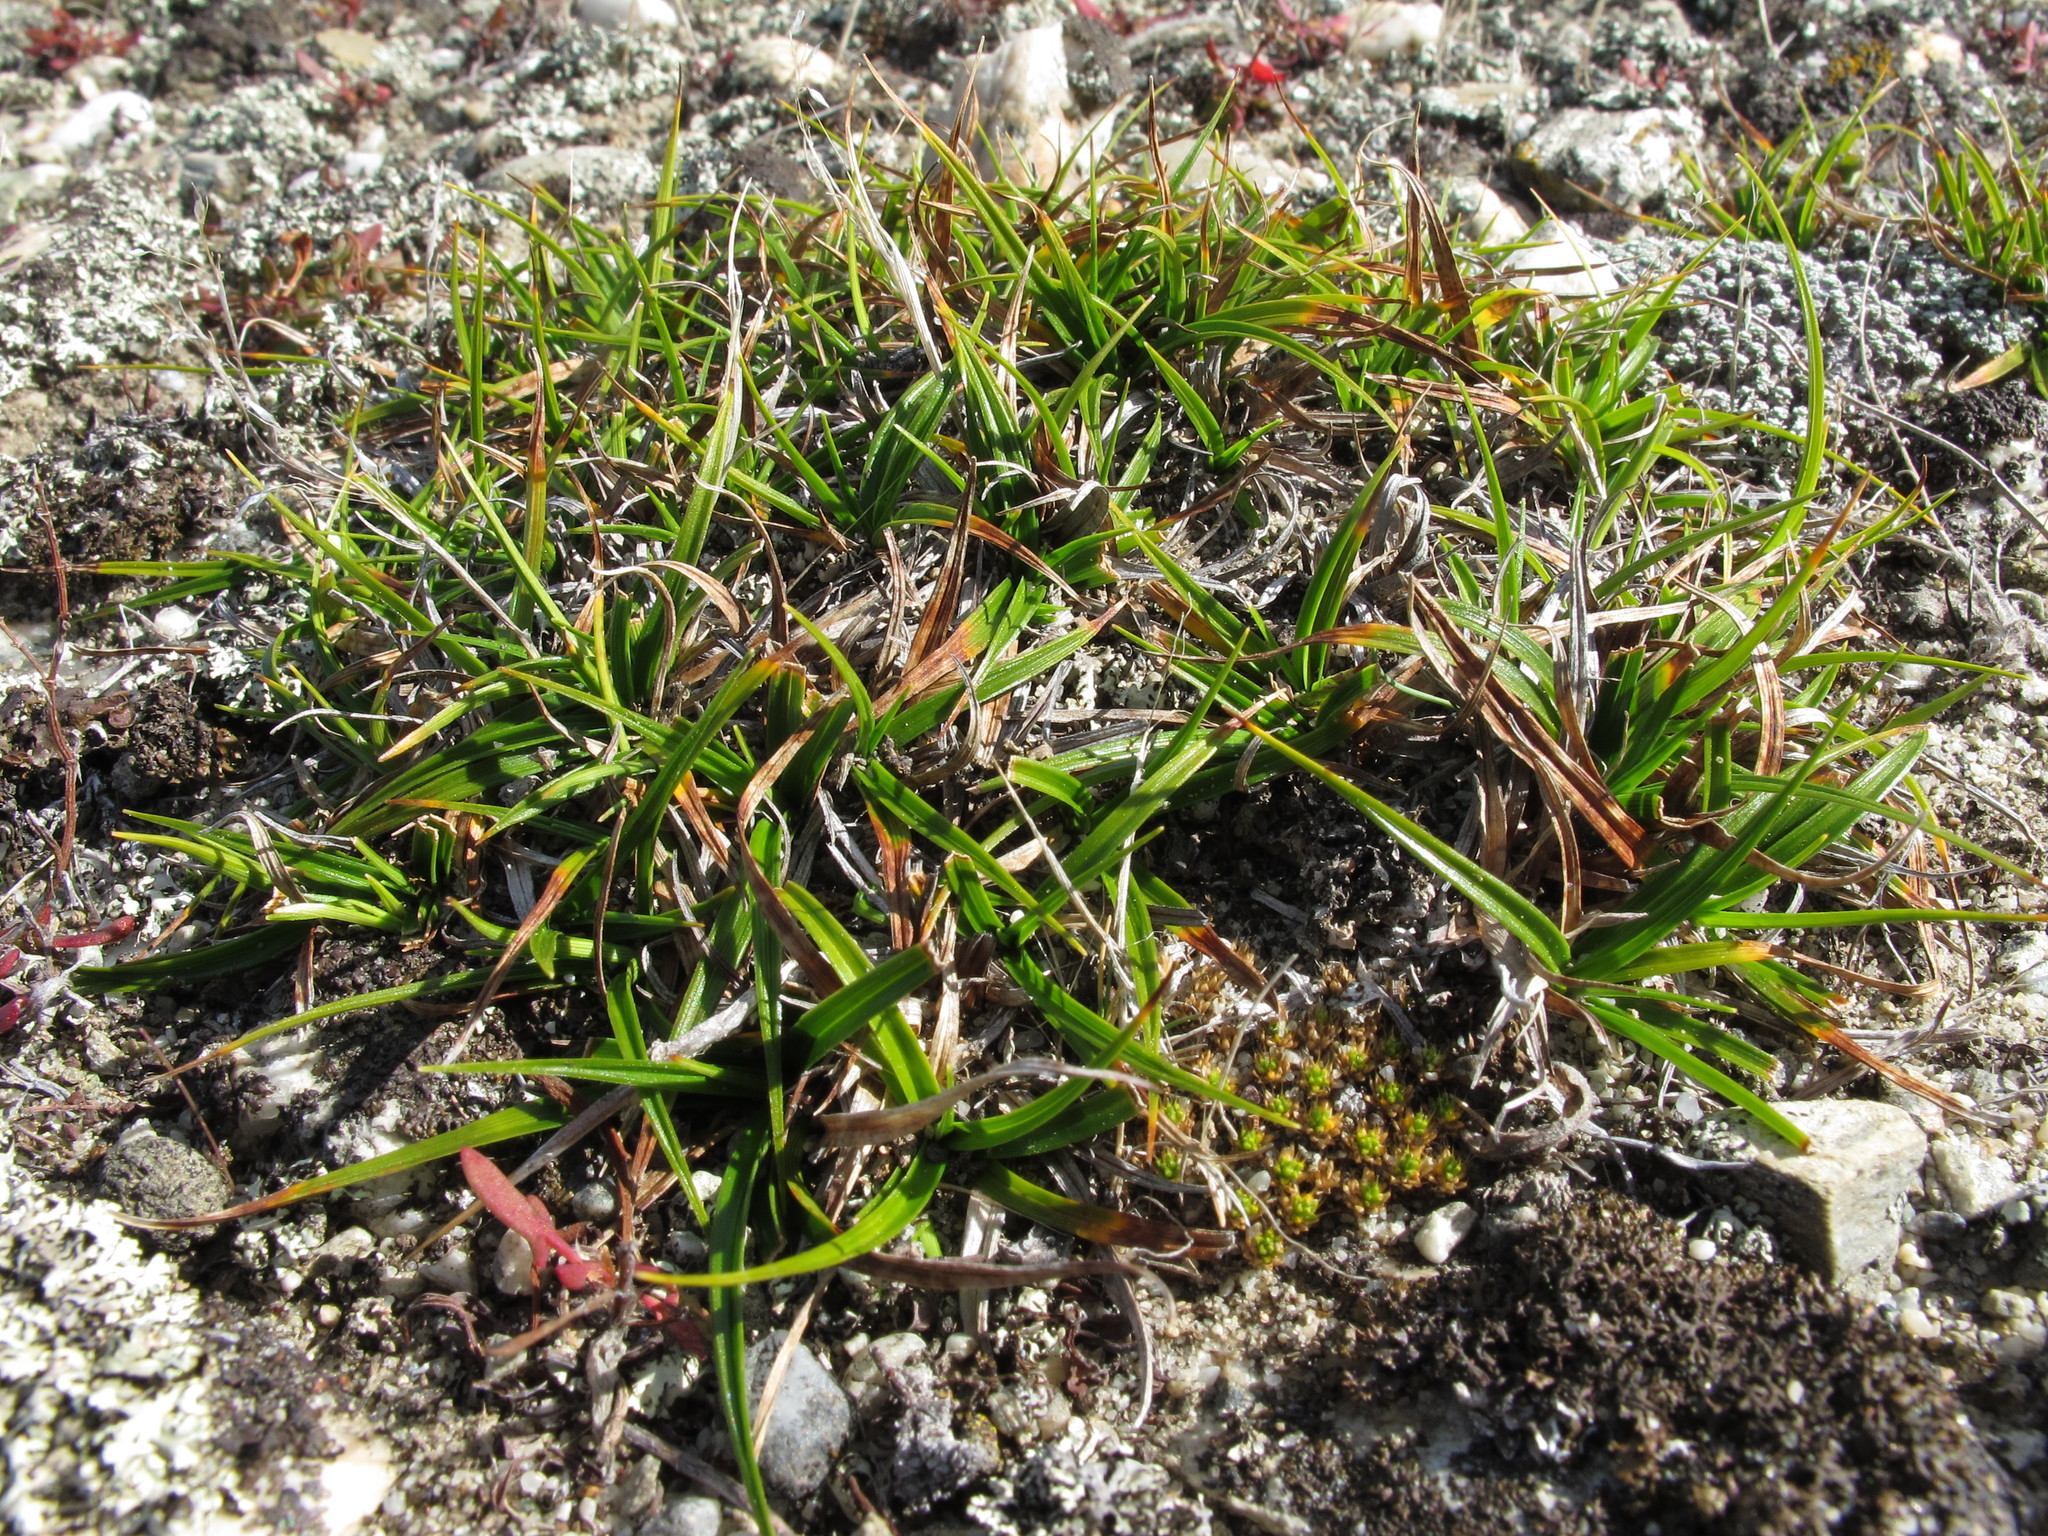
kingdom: Plantae
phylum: Tracheophyta
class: Liliopsida
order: Poales
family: Cyperaceae
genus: Carex
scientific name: Carex breviculmis
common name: Asian shortstem sedge
